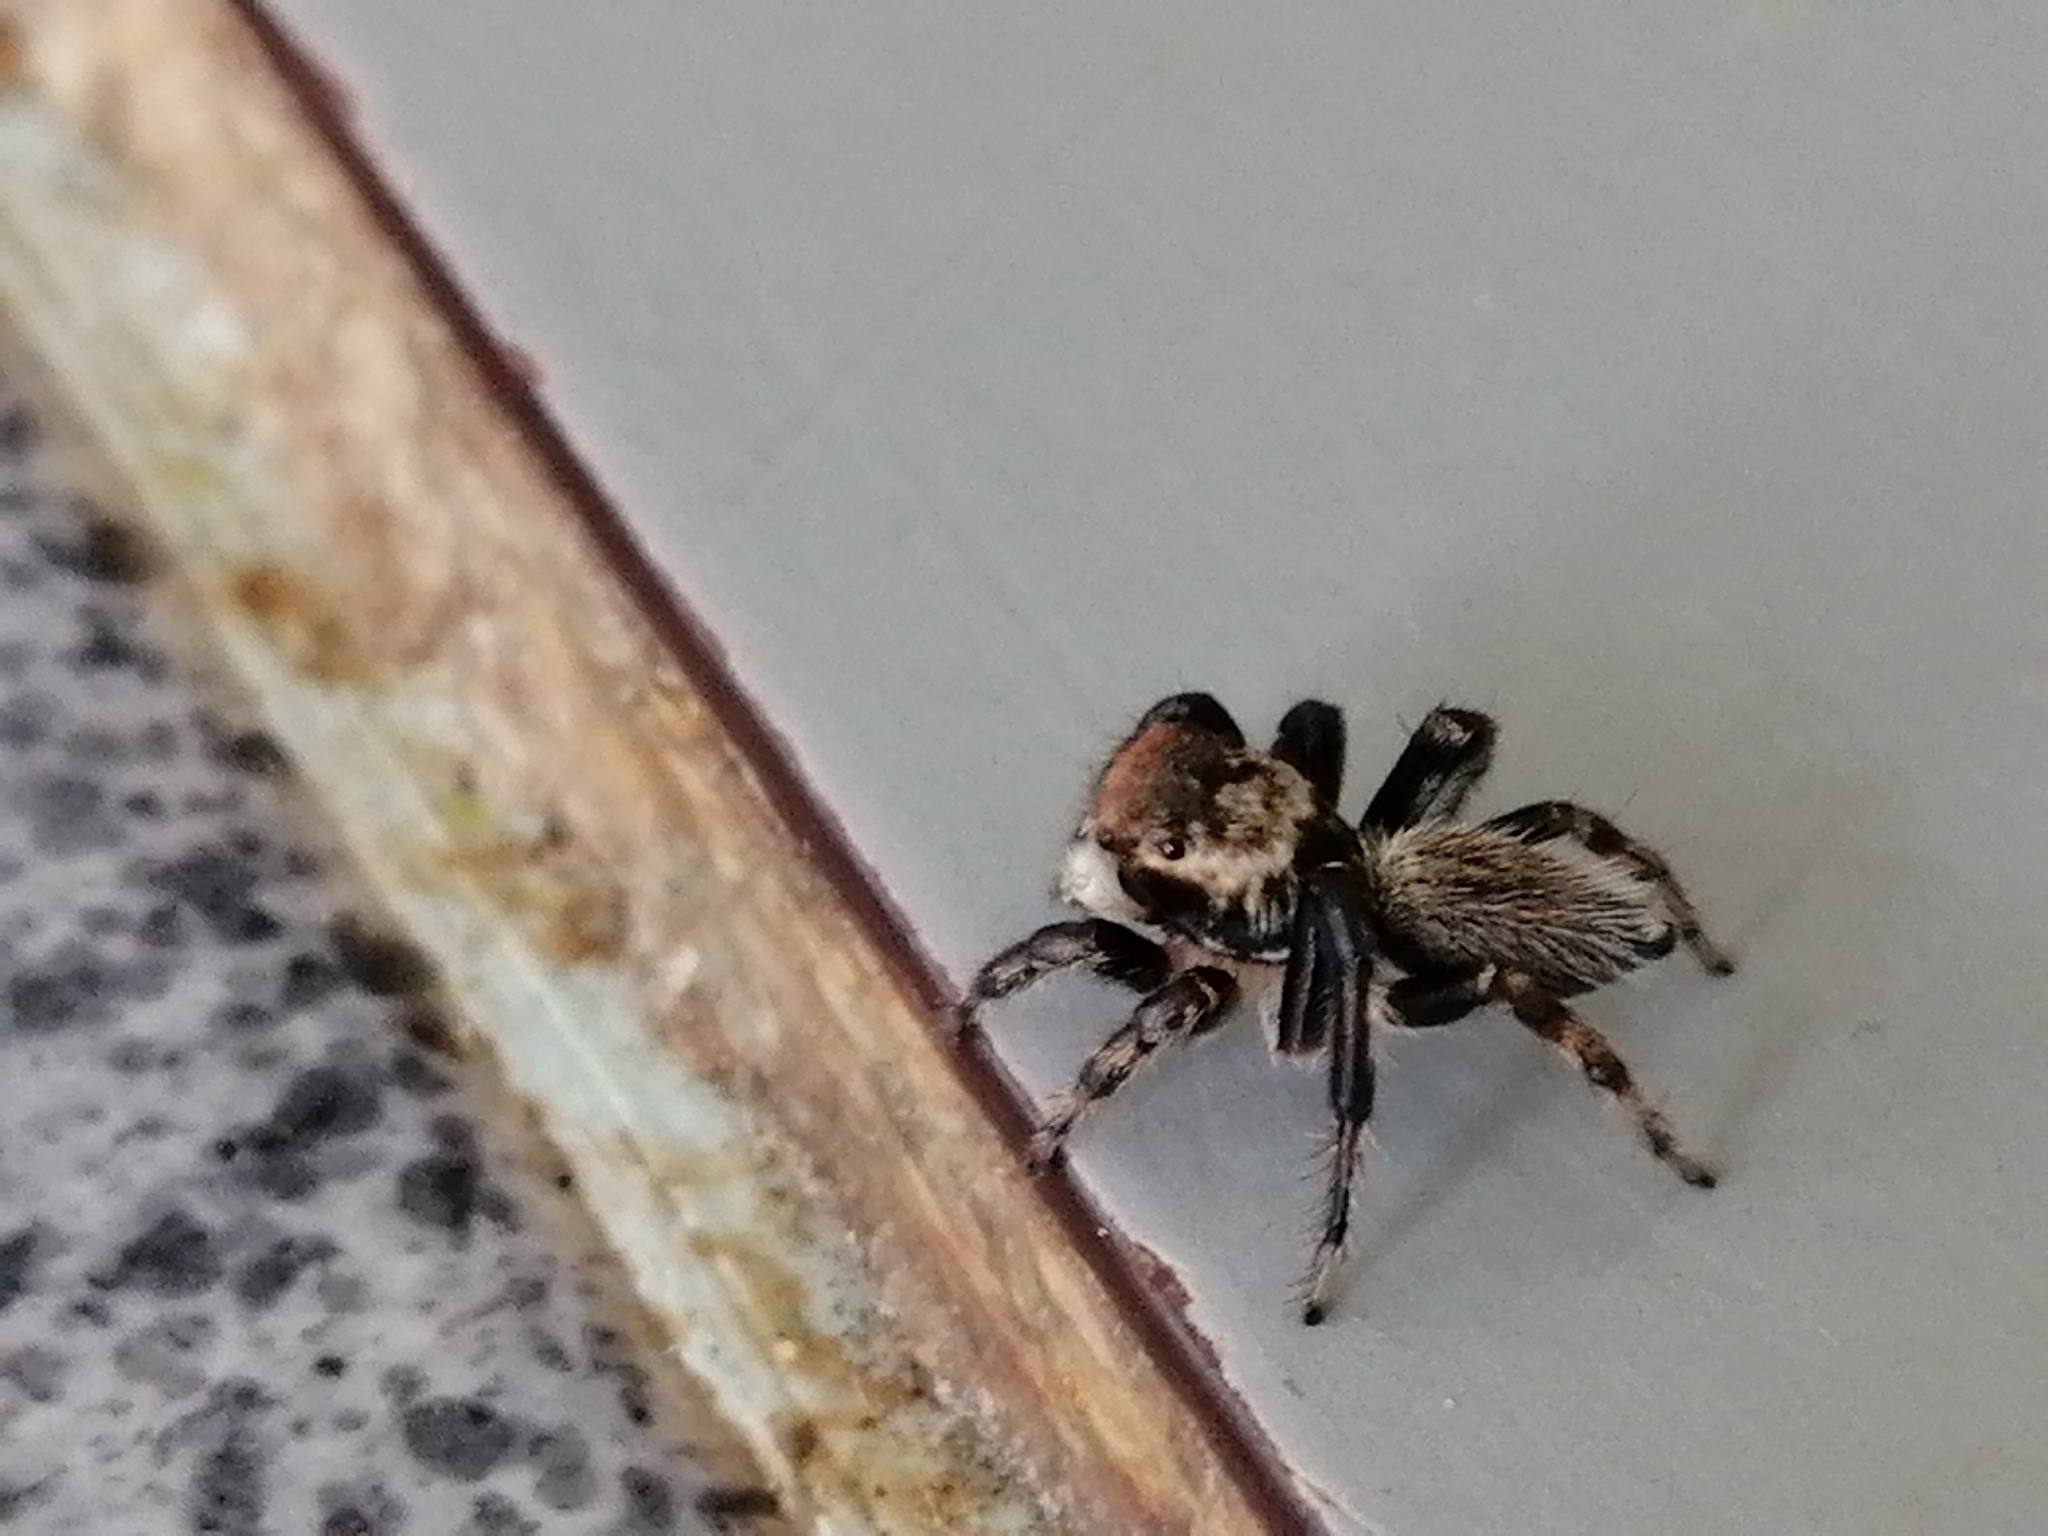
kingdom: Animalia
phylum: Arthropoda
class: Arachnida
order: Araneae
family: Salticidae
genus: Maratus
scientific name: Maratus griseus
